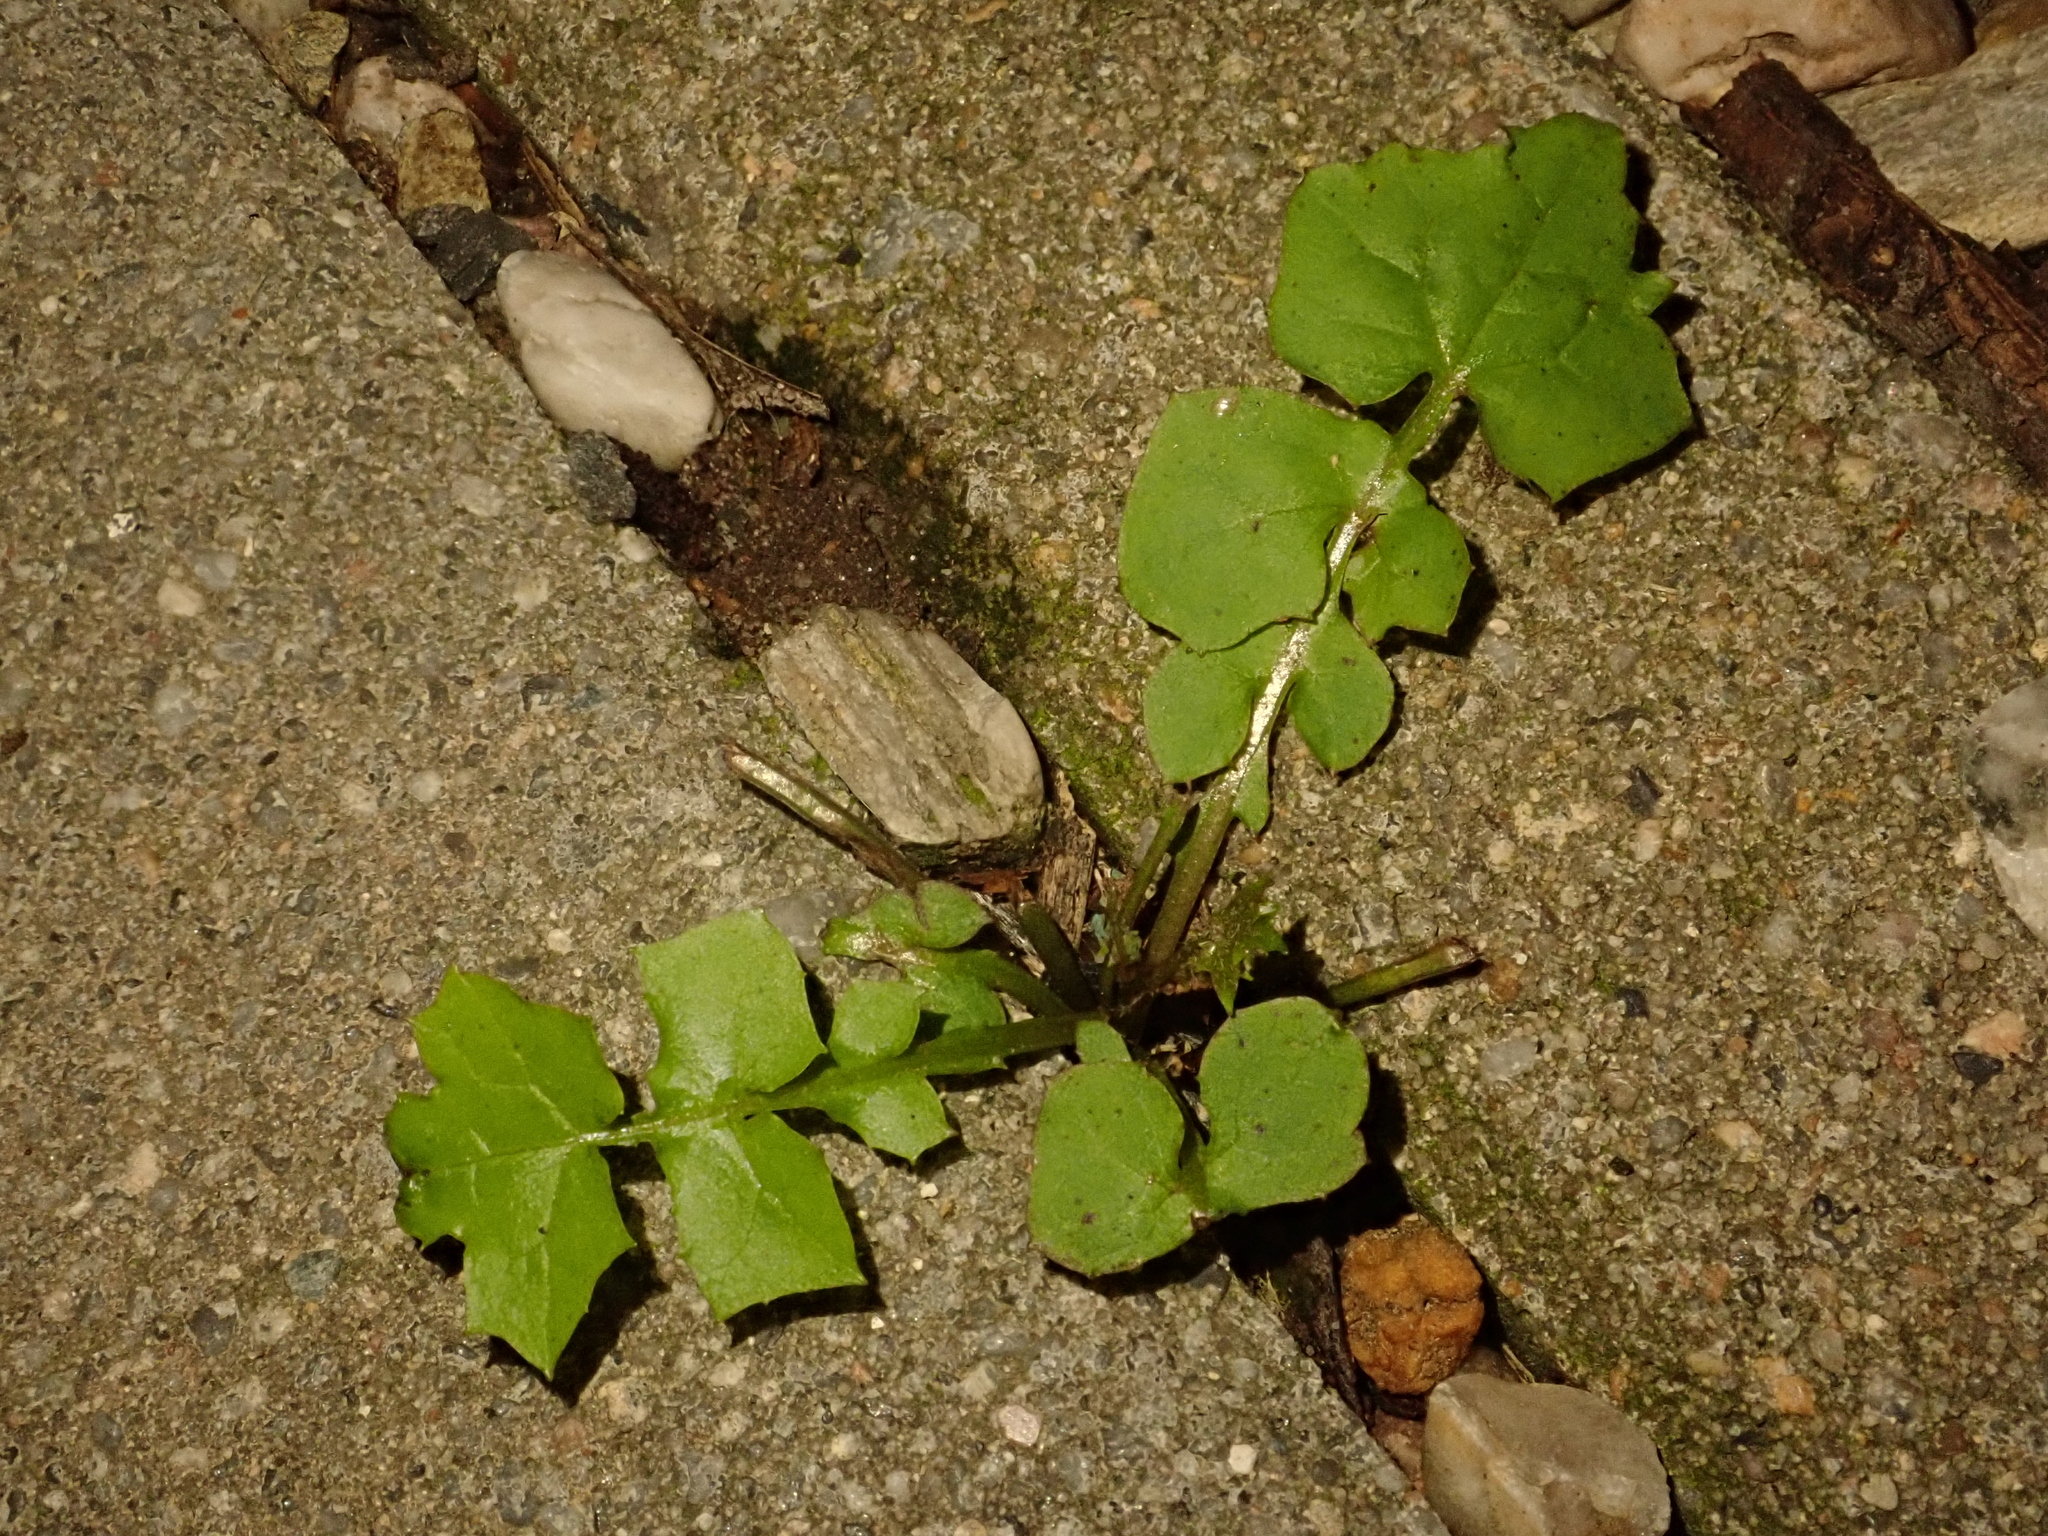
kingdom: Plantae
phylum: Tracheophyta
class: Magnoliopsida
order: Asterales
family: Asteraceae
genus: Mycelis
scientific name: Mycelis muralis
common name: Wall lettuce
